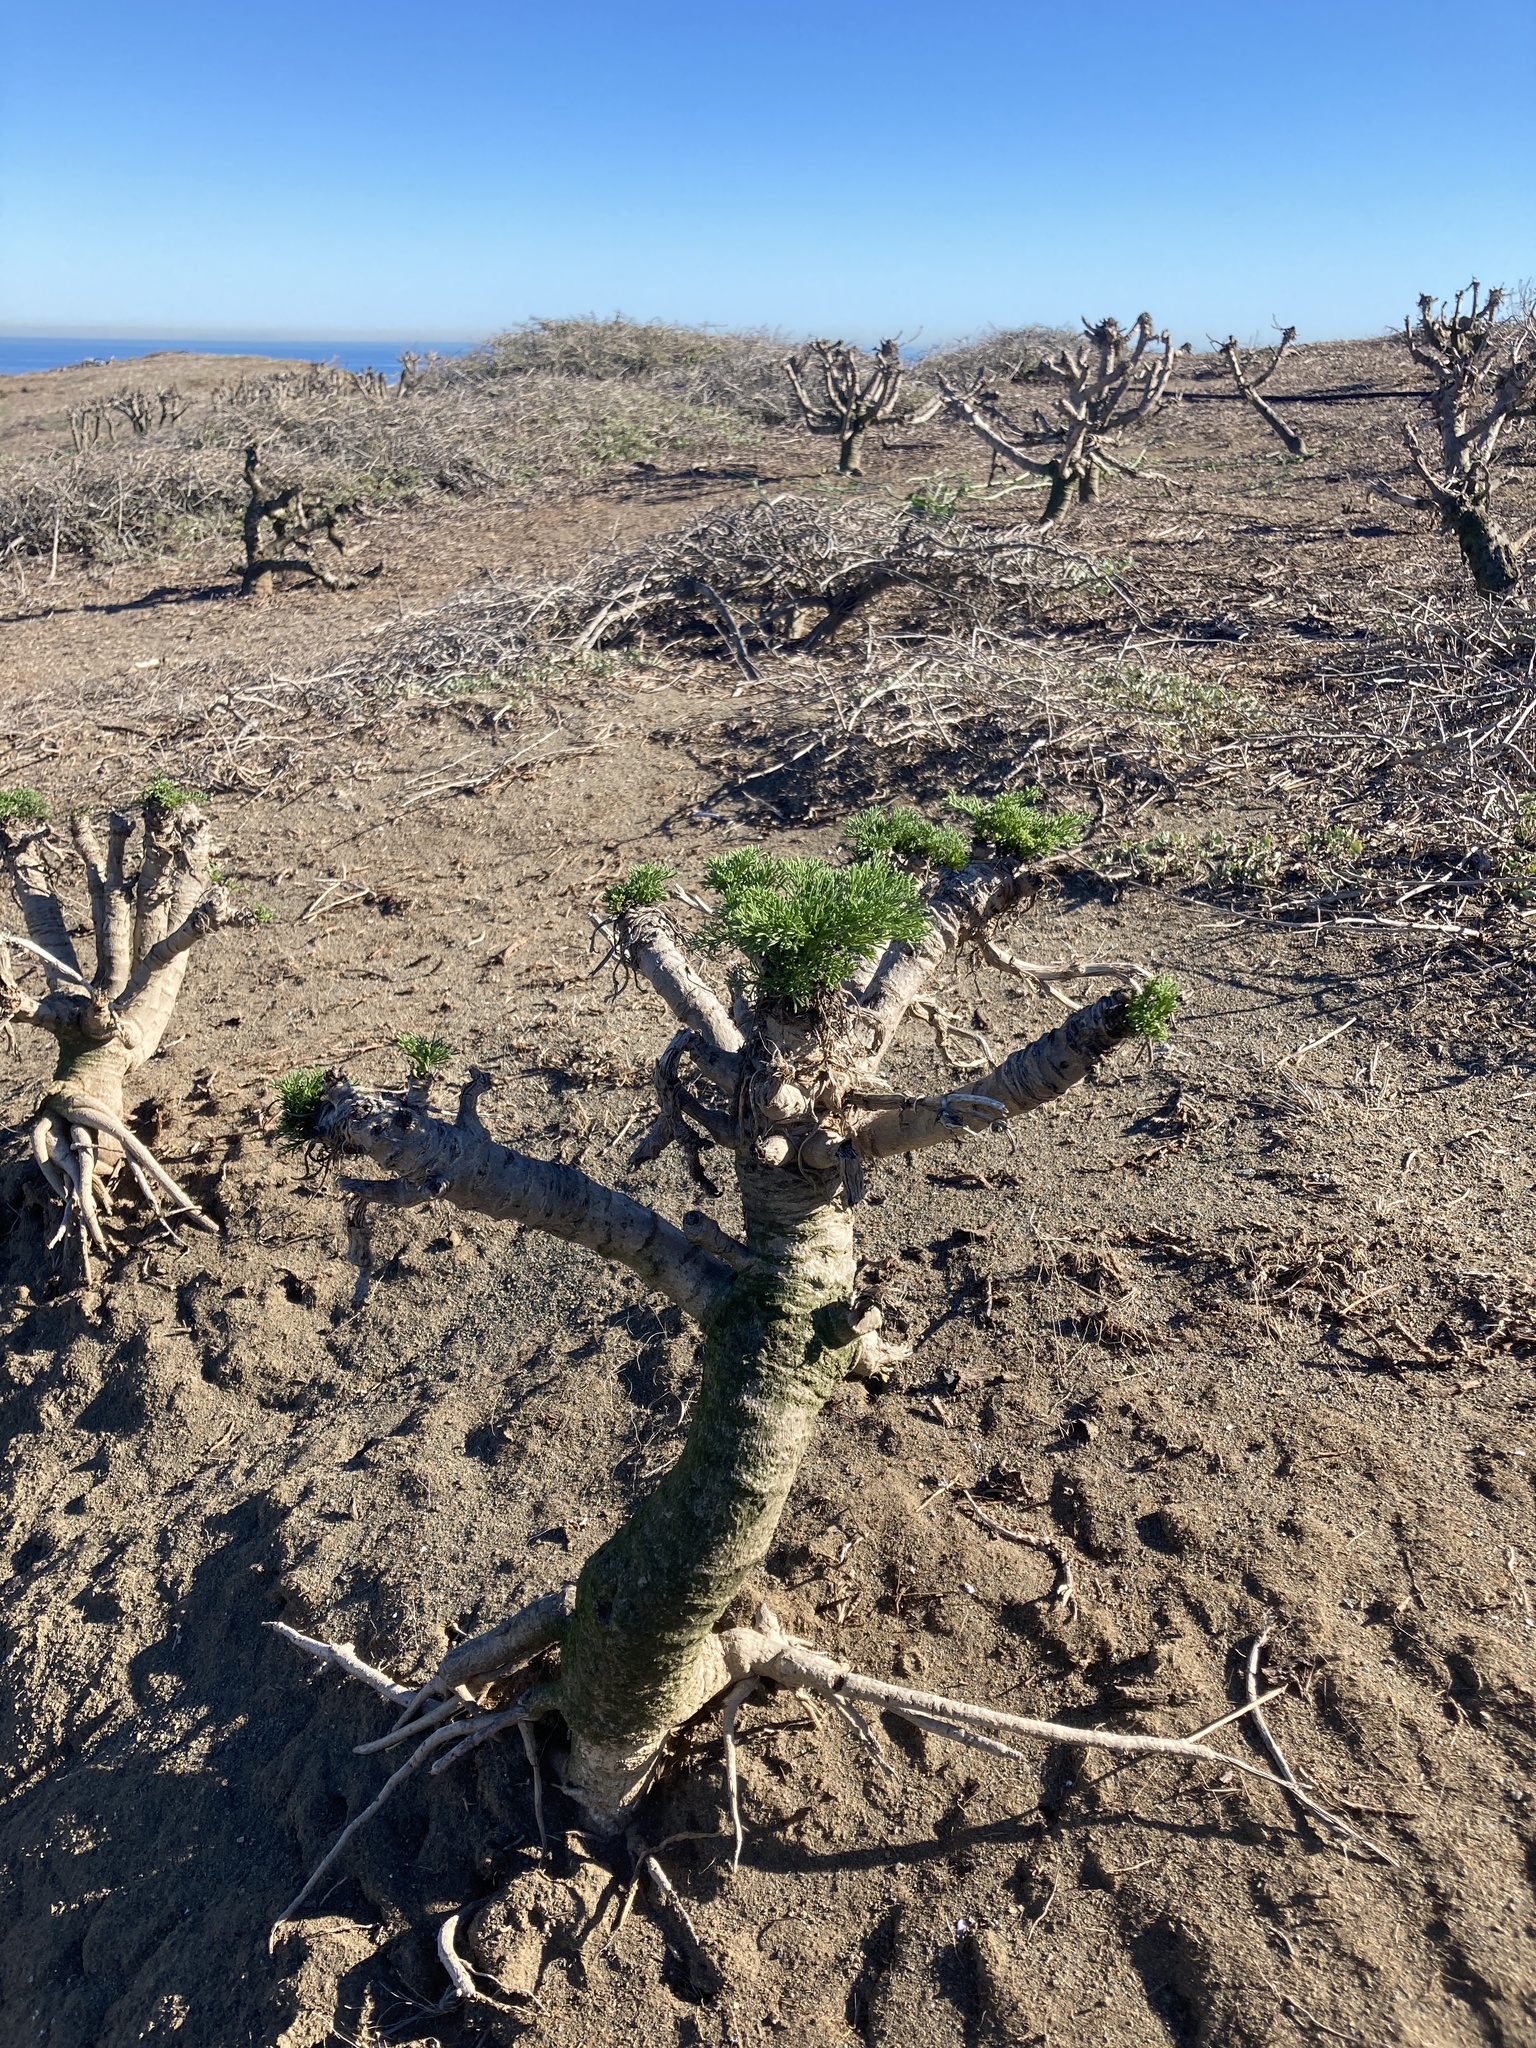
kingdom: Plantae
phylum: Tracheophyta
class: Magnoliopsida
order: Asterales
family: Asteraceae
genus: Coreopsis
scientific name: Coreopsis gigantea
